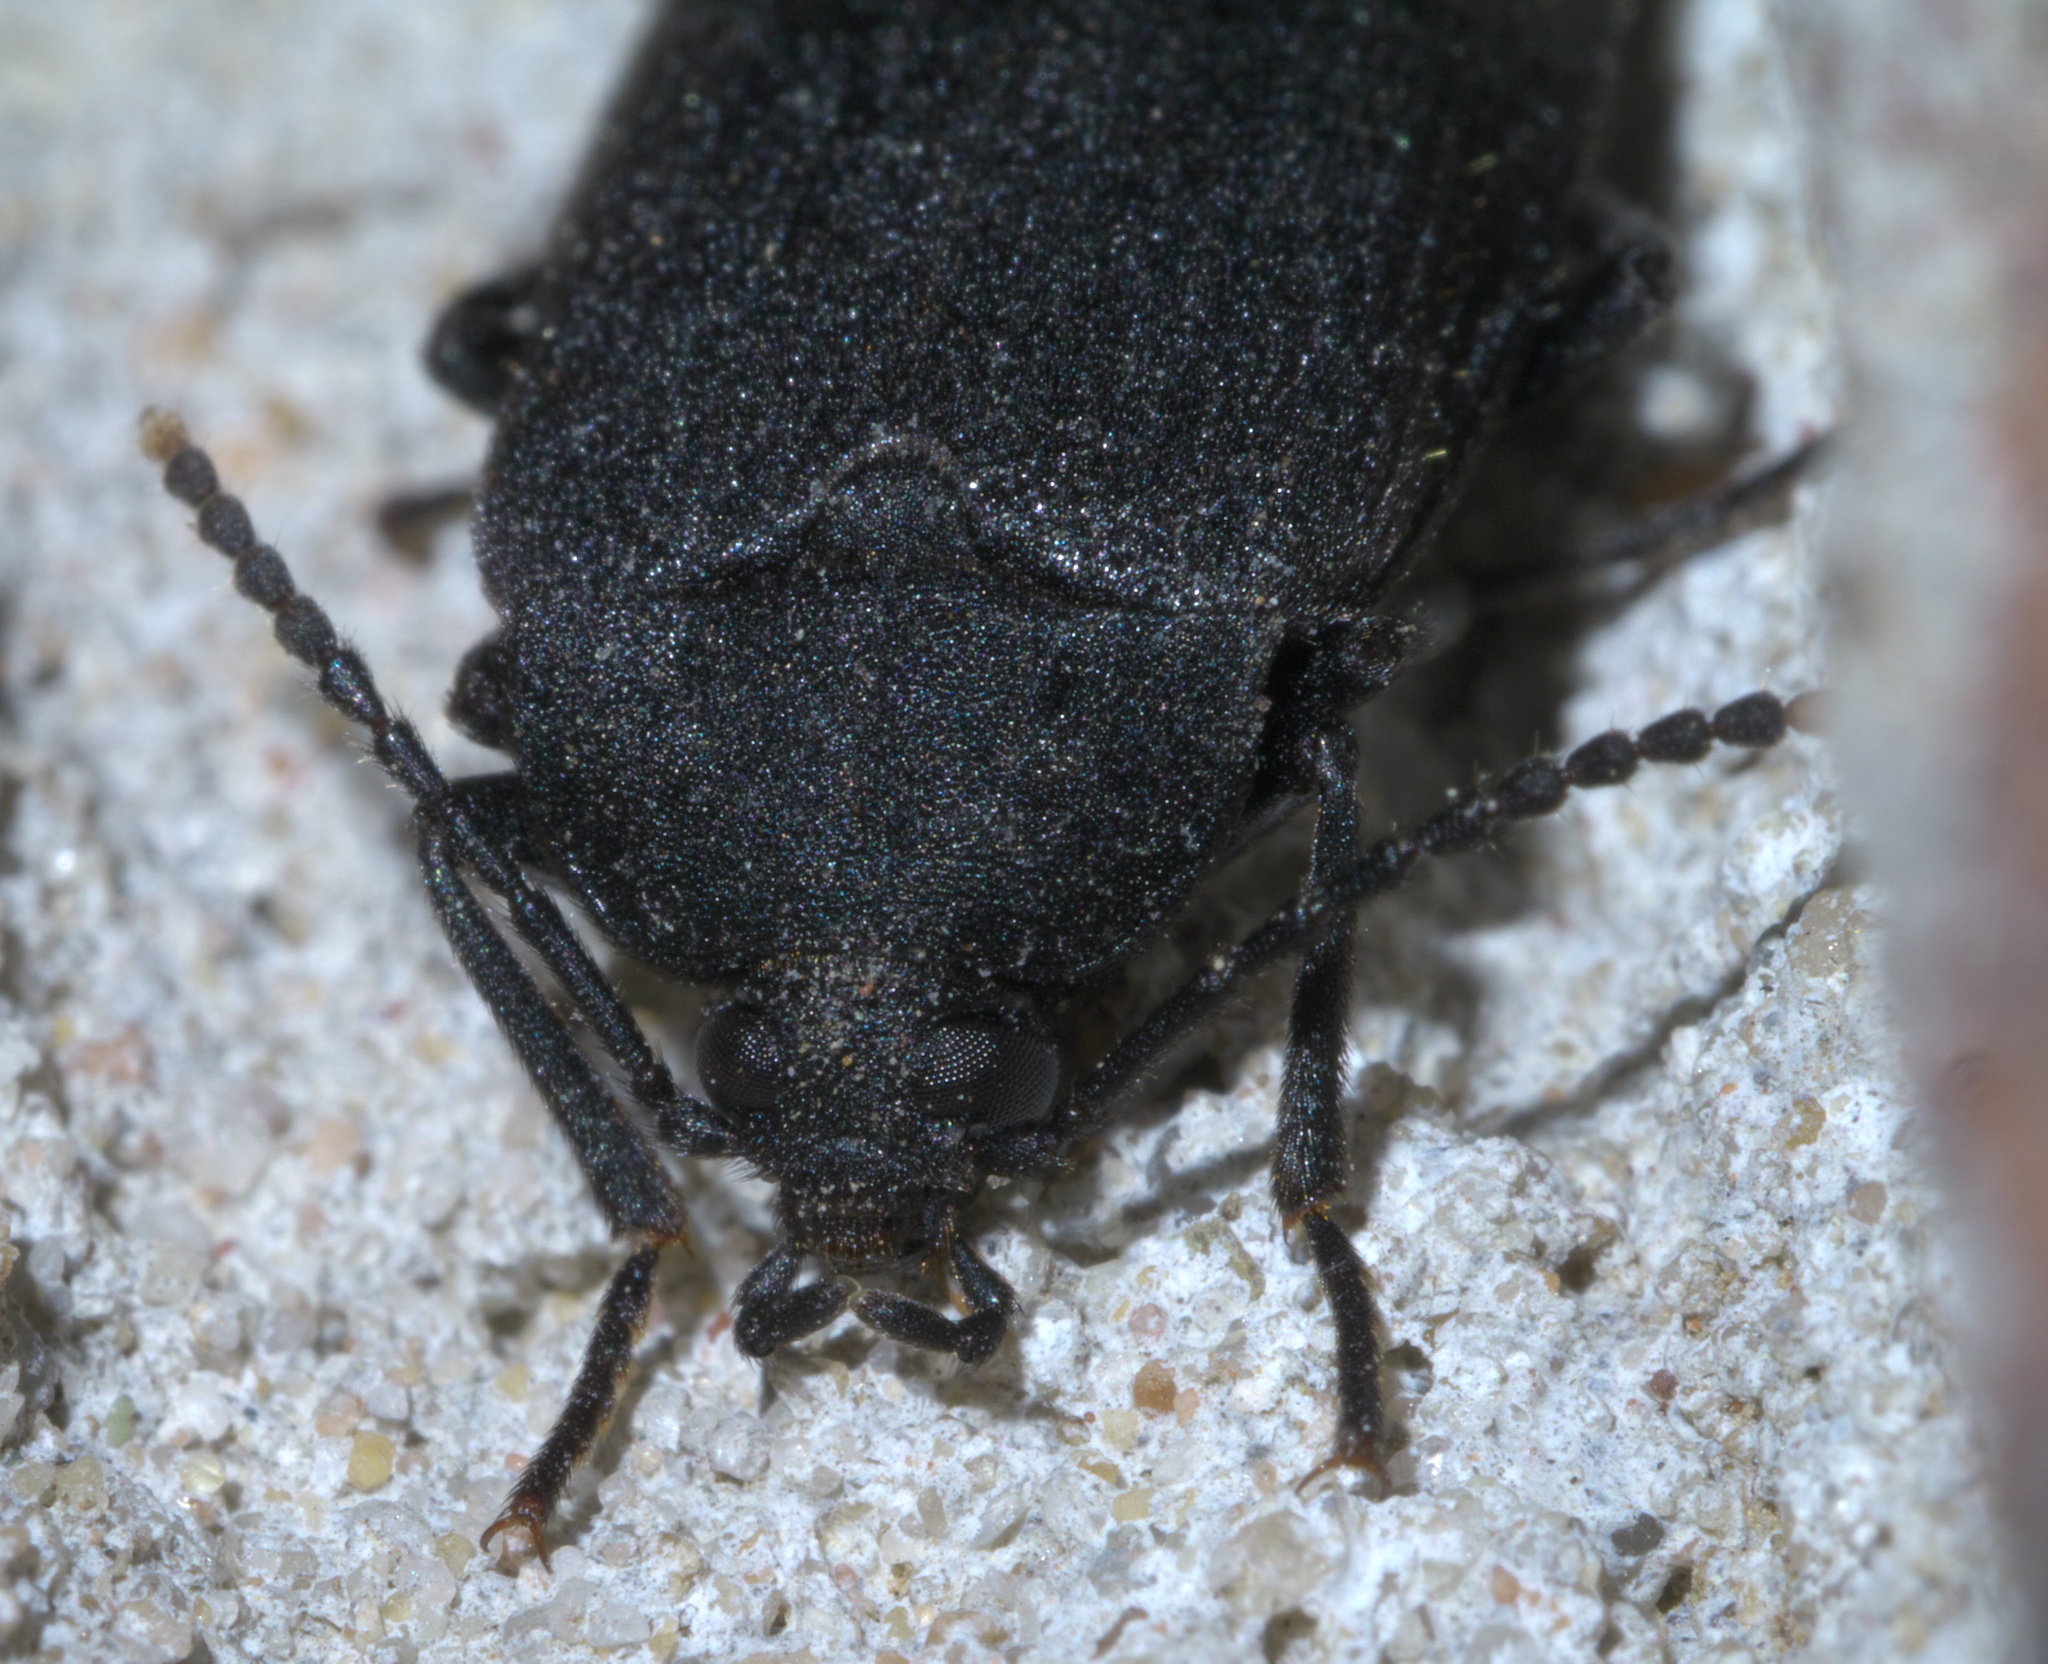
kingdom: Animalia
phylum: Arthropoda
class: Insecta
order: Coleoptera
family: Tetratomidae
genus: Penthe
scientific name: Penthe pimelia
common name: Velvety bark beetle
